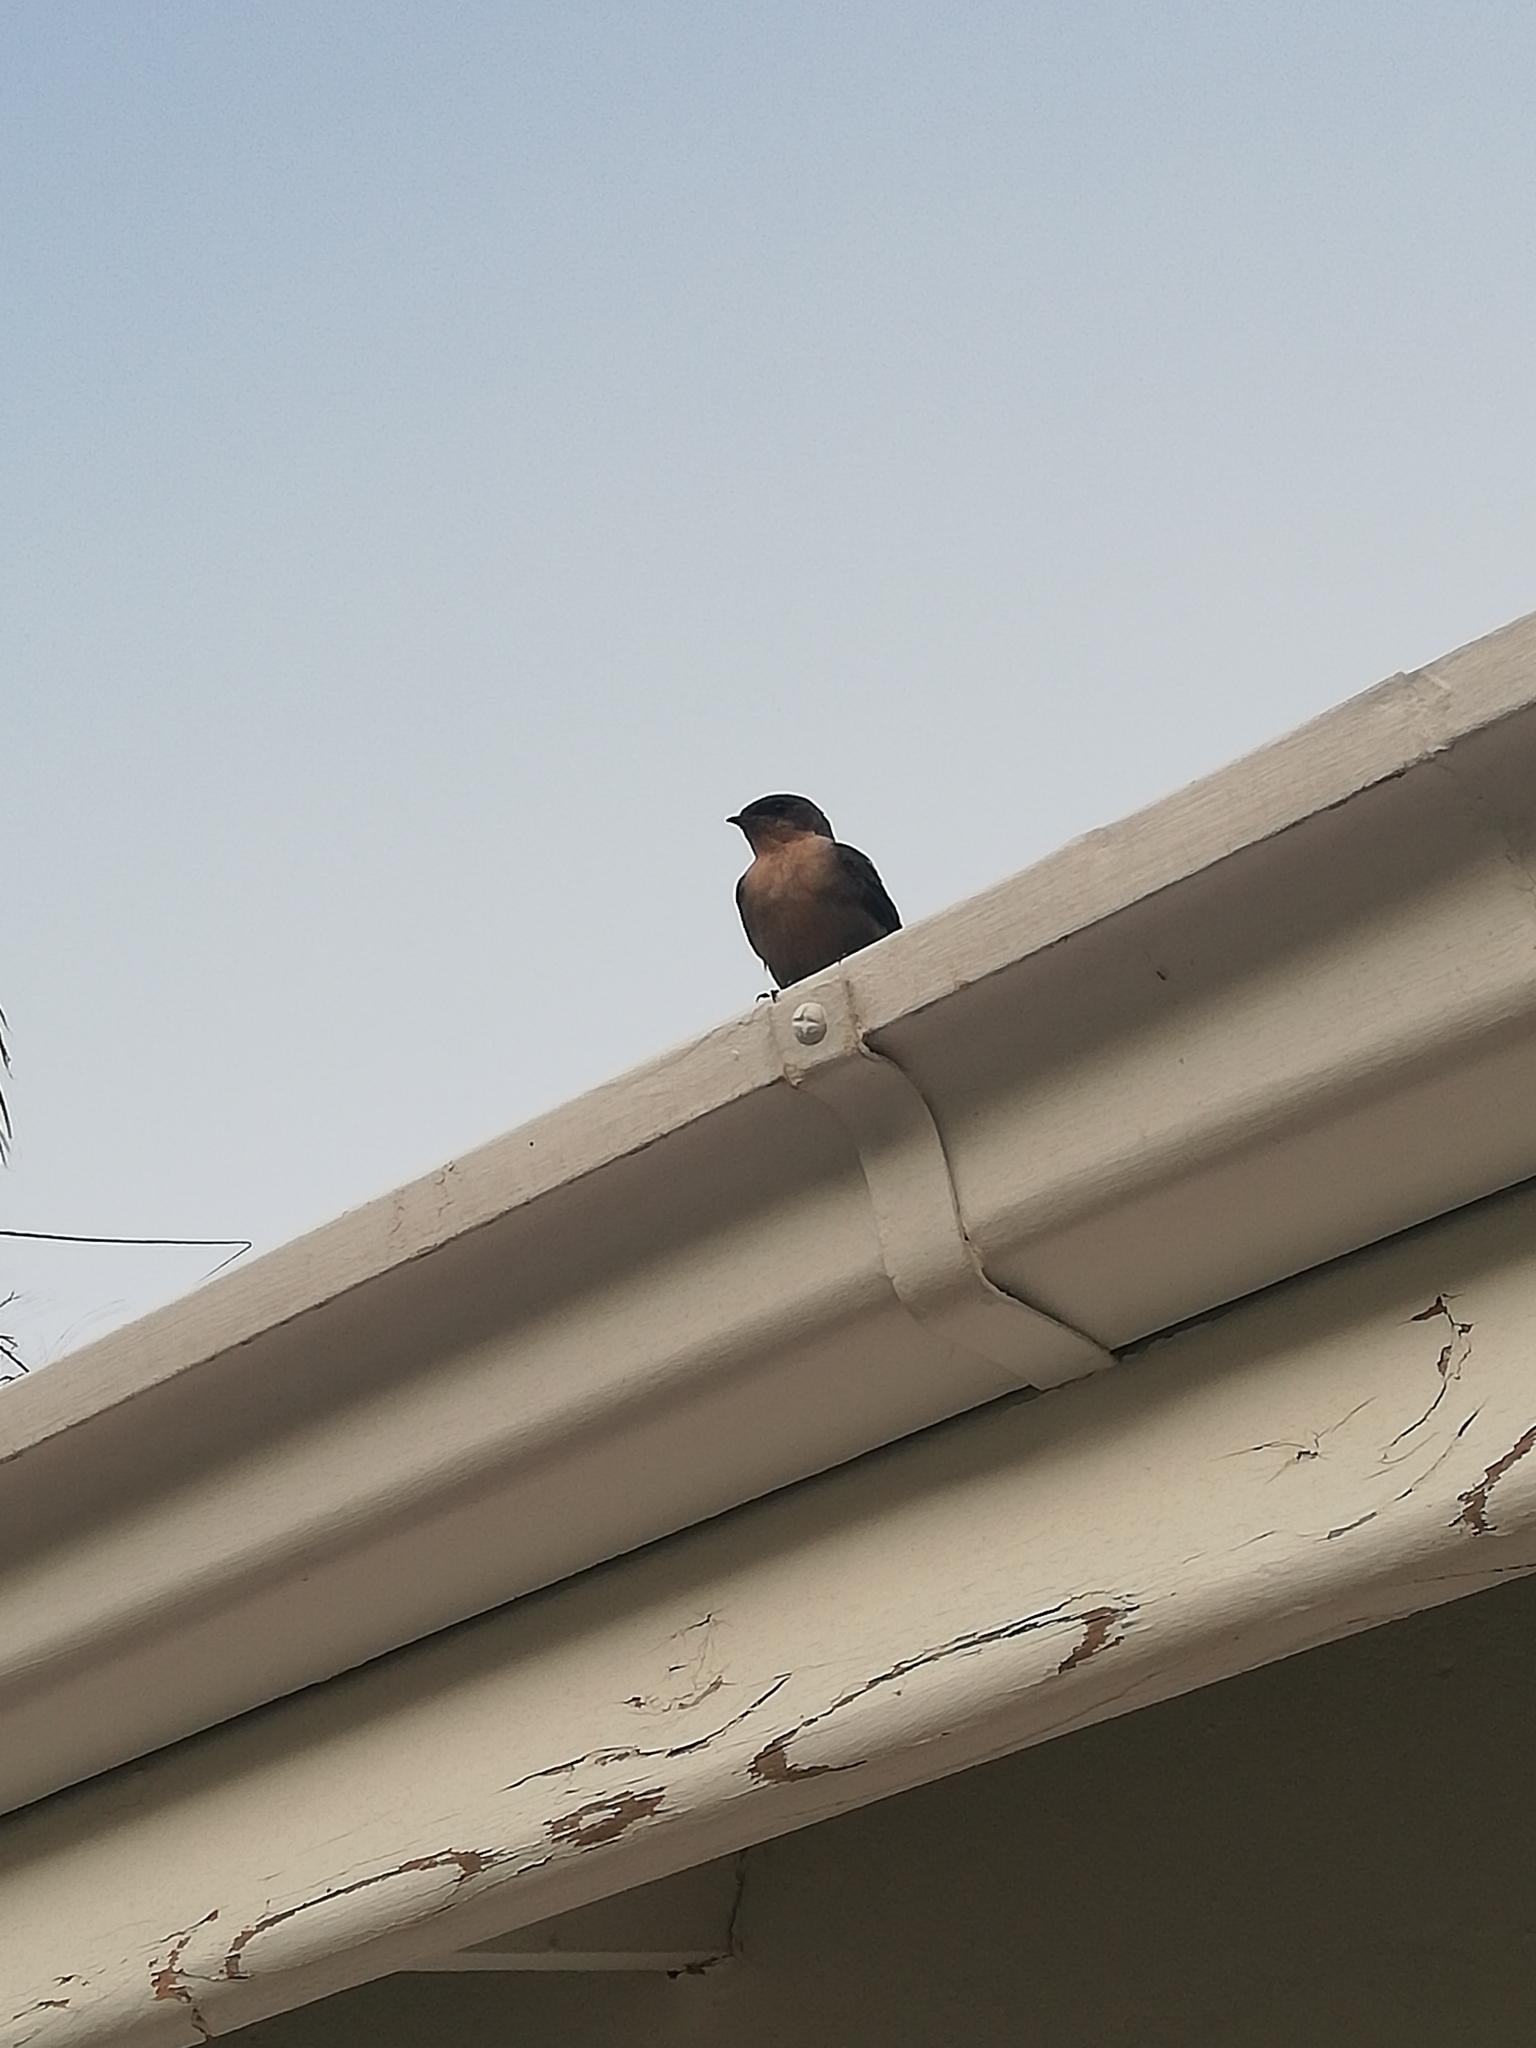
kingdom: Animalia
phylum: Chordata
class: Aves
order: Passeriformes
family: Hirundinidae
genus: Ptyonoprogne
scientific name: Ptyonoprogne fuligula
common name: Rock martin
